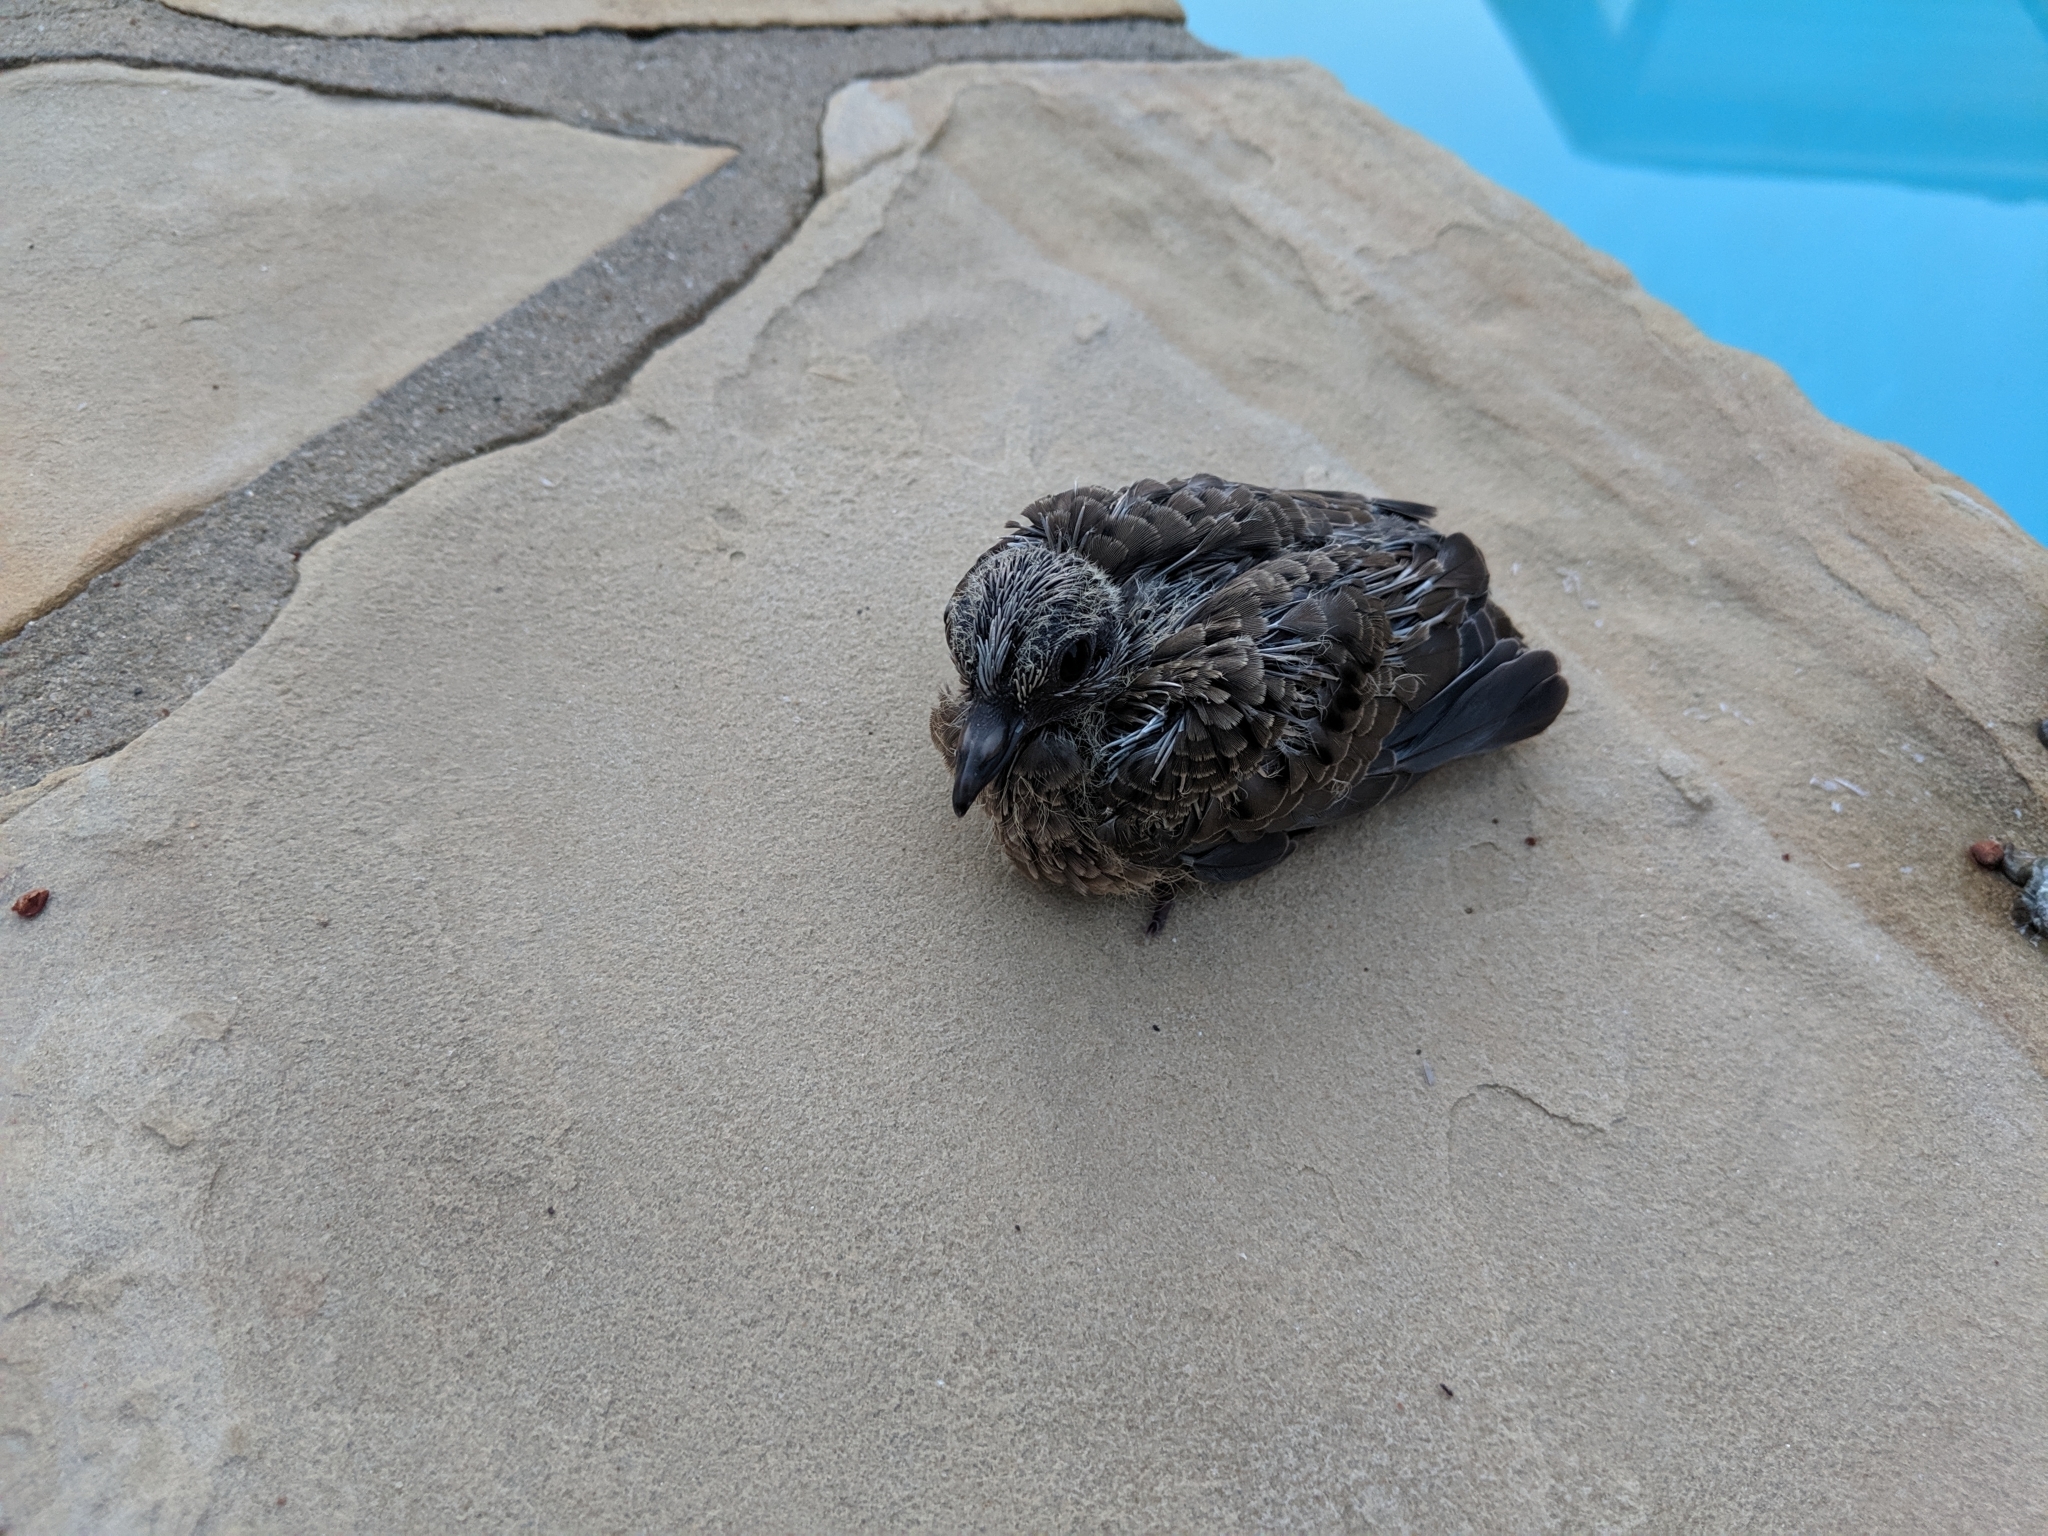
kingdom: Animalia
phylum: Chordata
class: Aves
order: Columbiformes
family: Columbidae
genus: Zenaida
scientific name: Zenaida macroura
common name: Mourning dove
